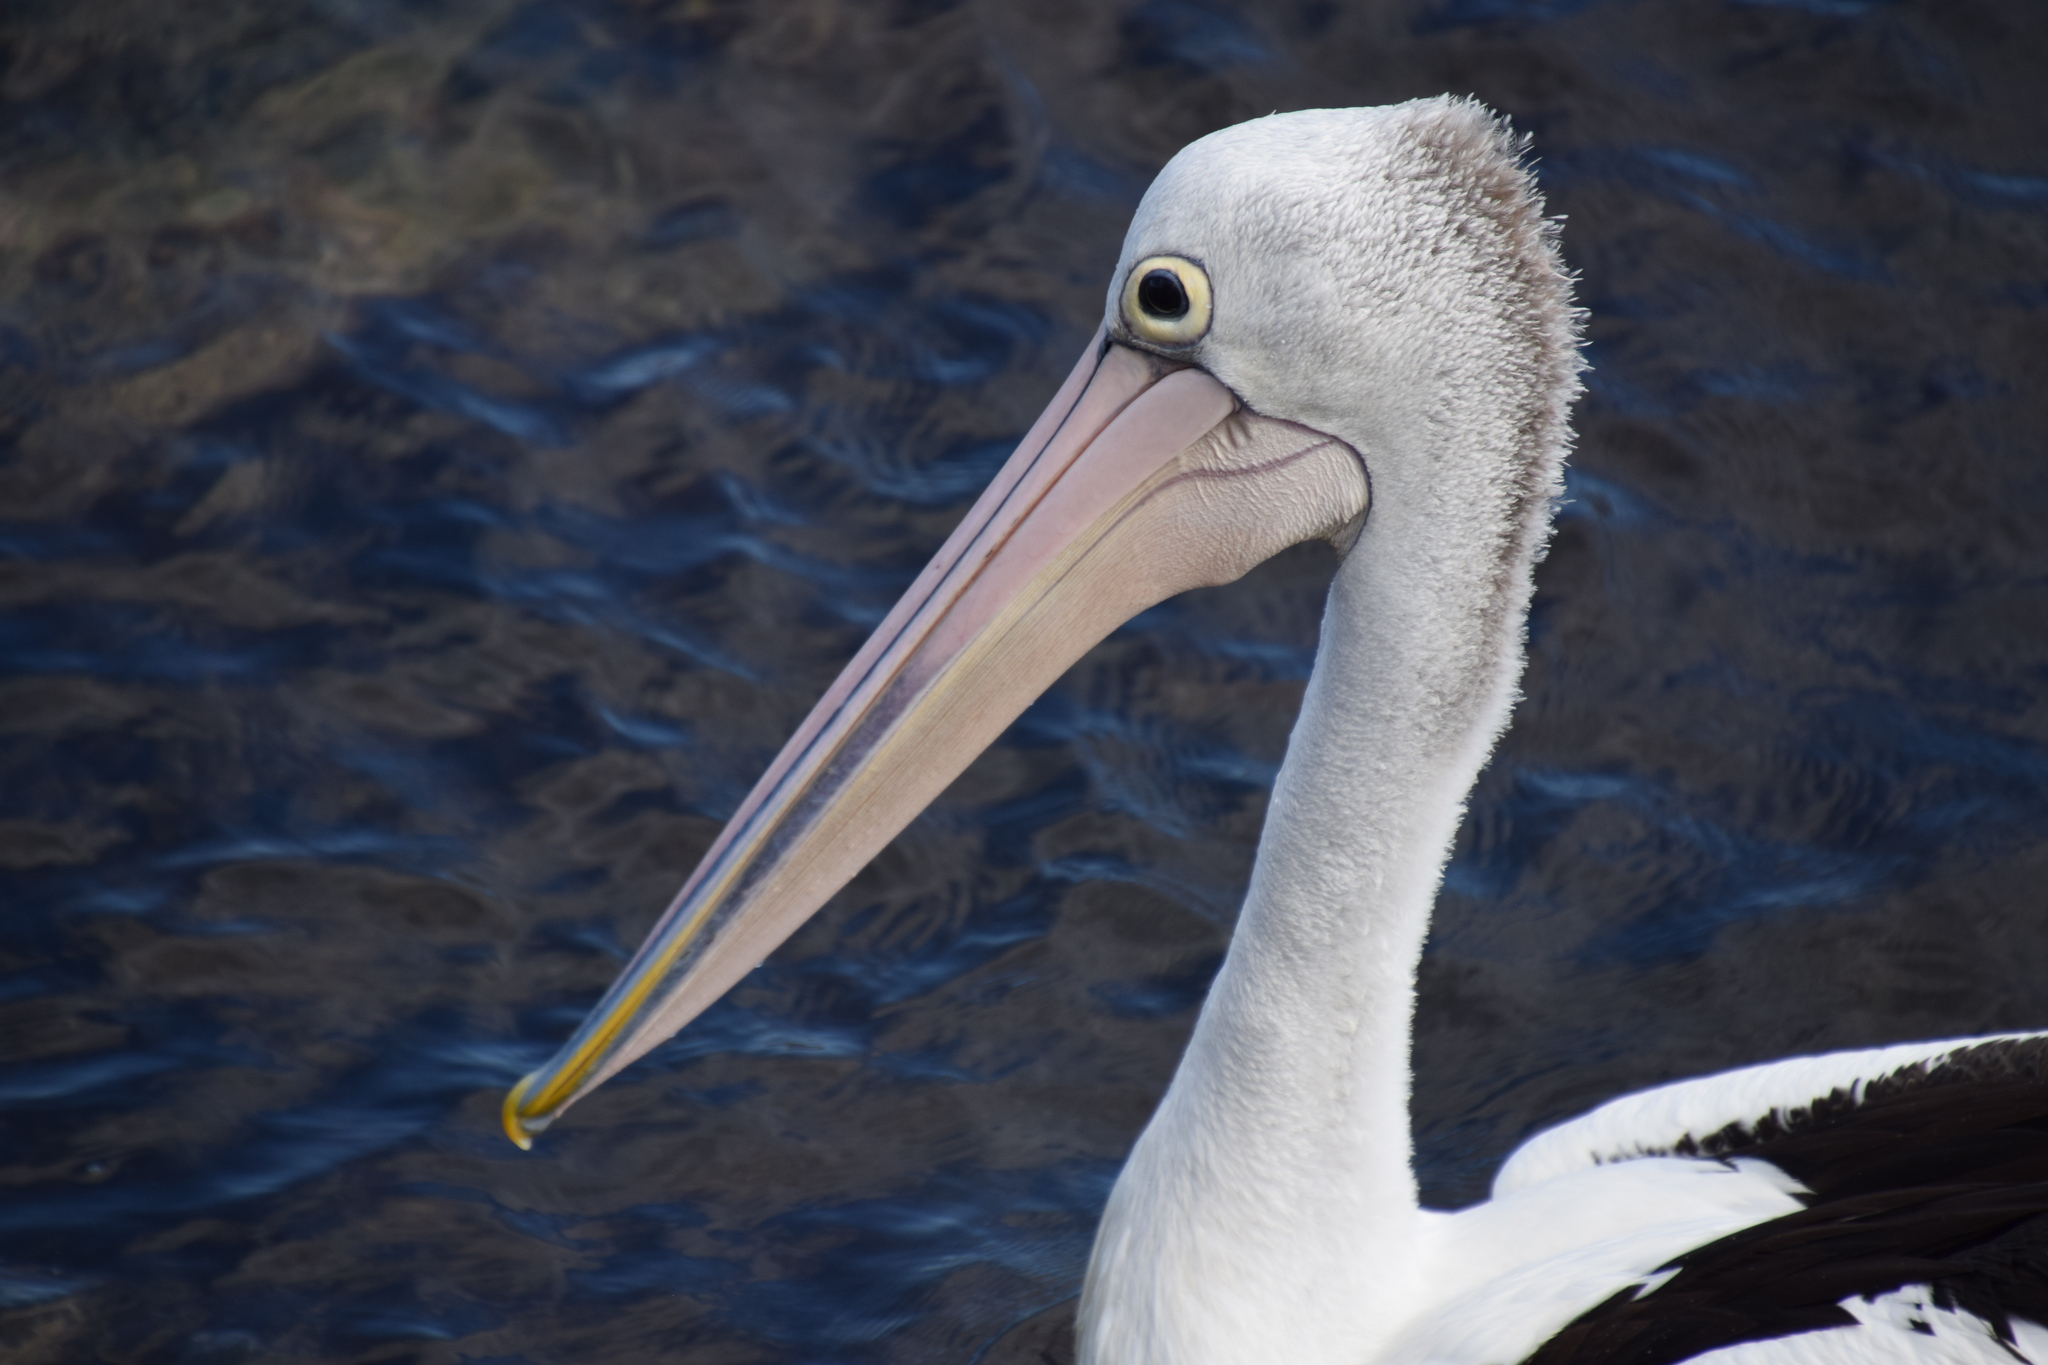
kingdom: Animalia
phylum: Chordata
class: Aves
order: Pelecaniformes
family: Pelecanidae
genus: Pelecanus
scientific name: Pelecanus conspicillatus
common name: Australian pelican
